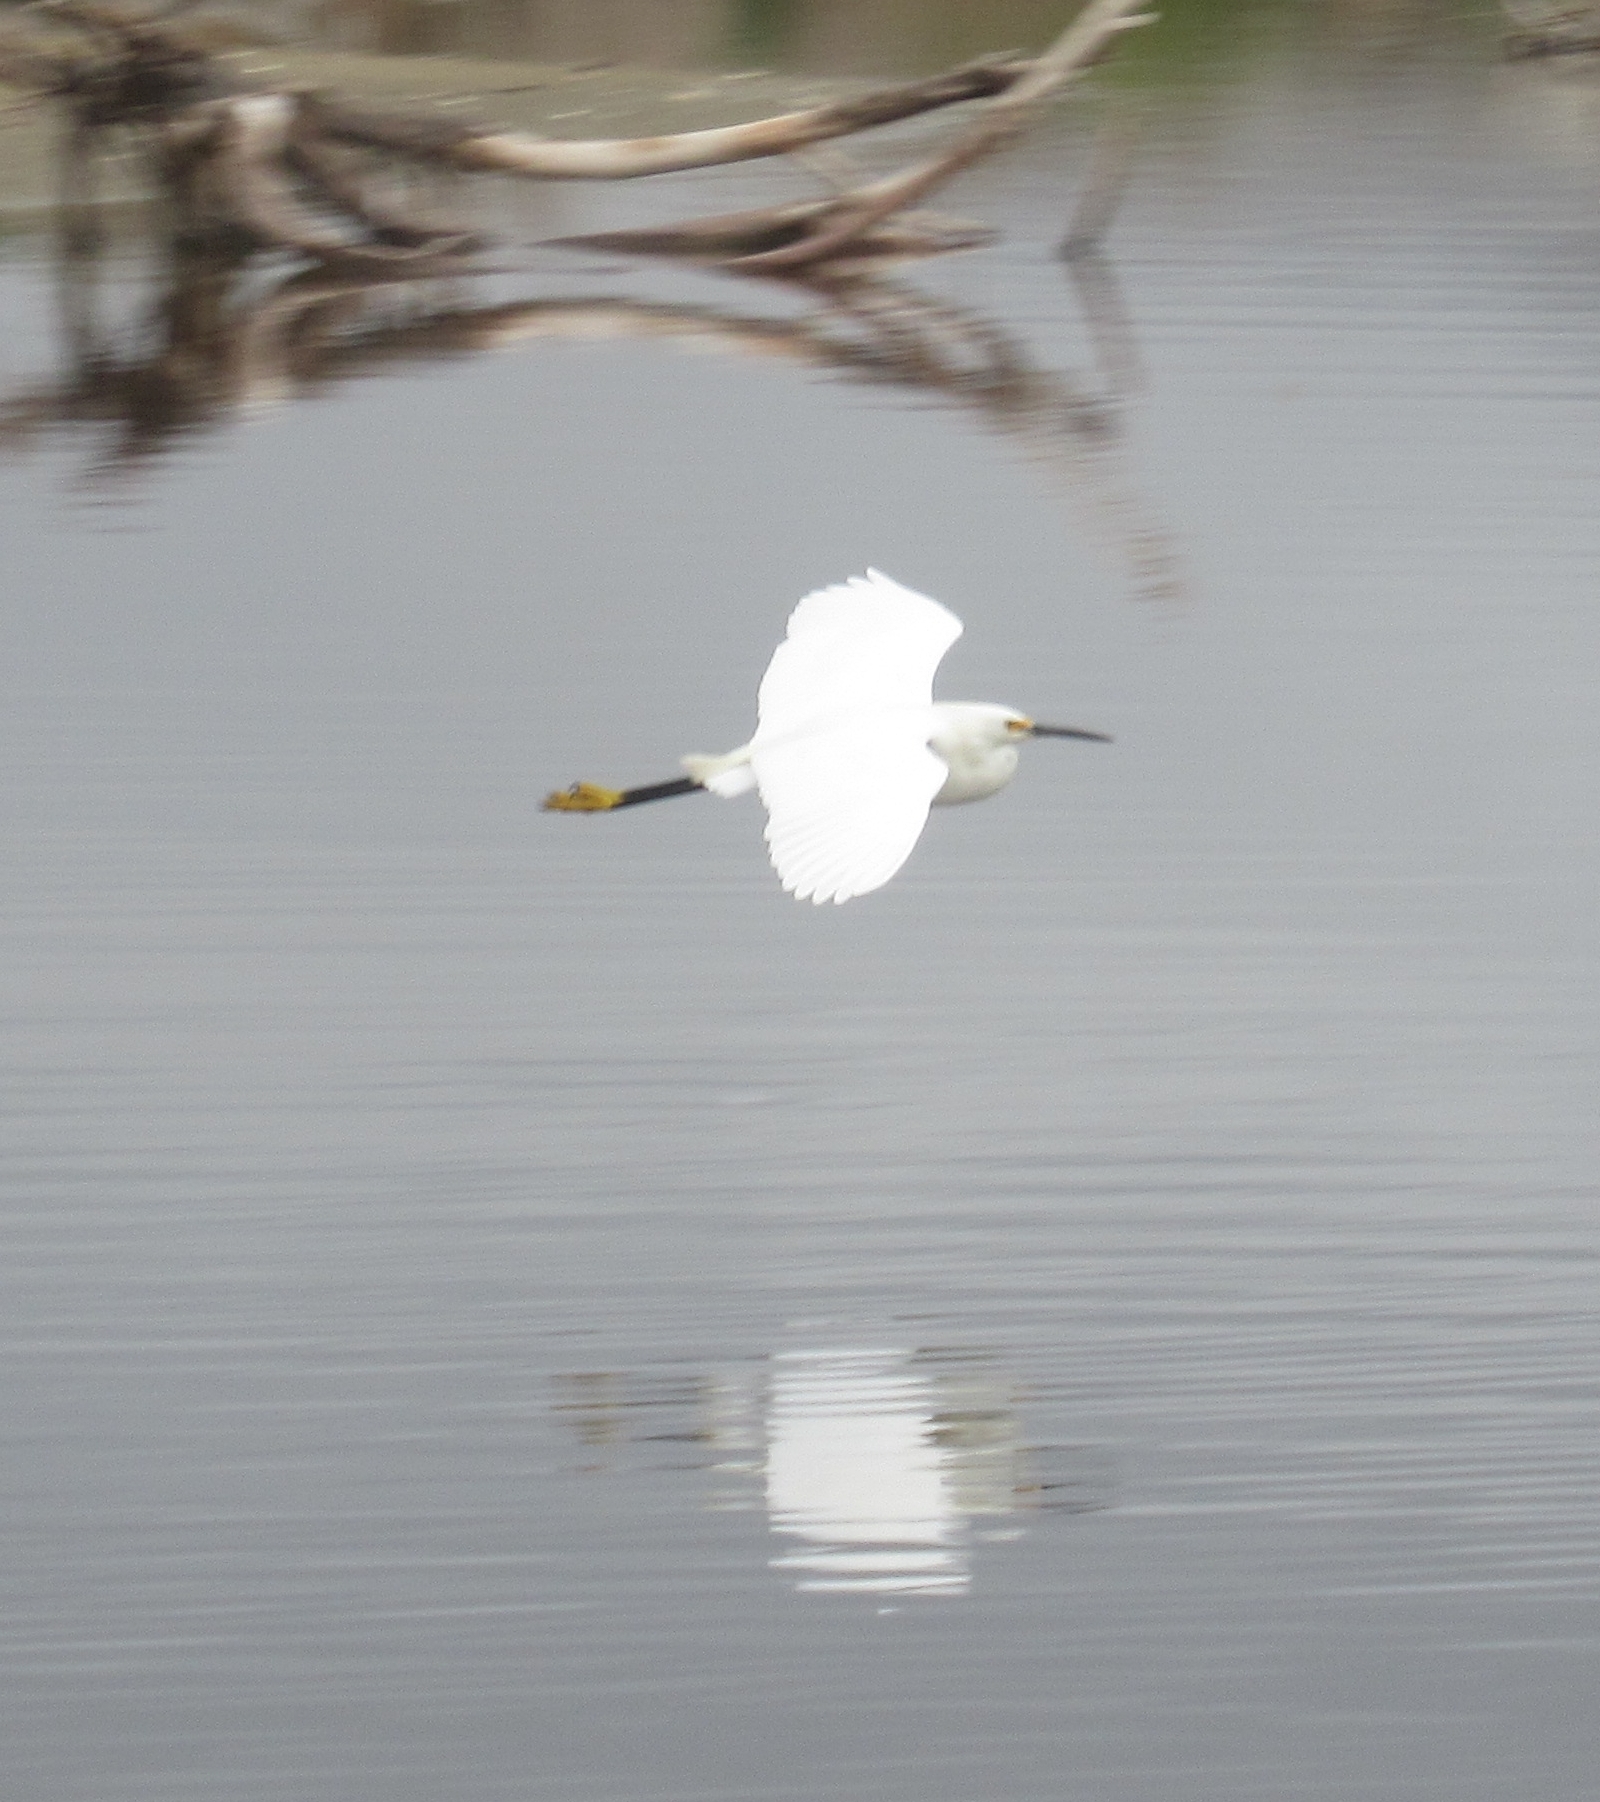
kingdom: Animalia
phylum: Chordata
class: Aves
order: Pelecaniformes
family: Ardeidae
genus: Egretta
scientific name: Egretta thula
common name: Snowy egret
